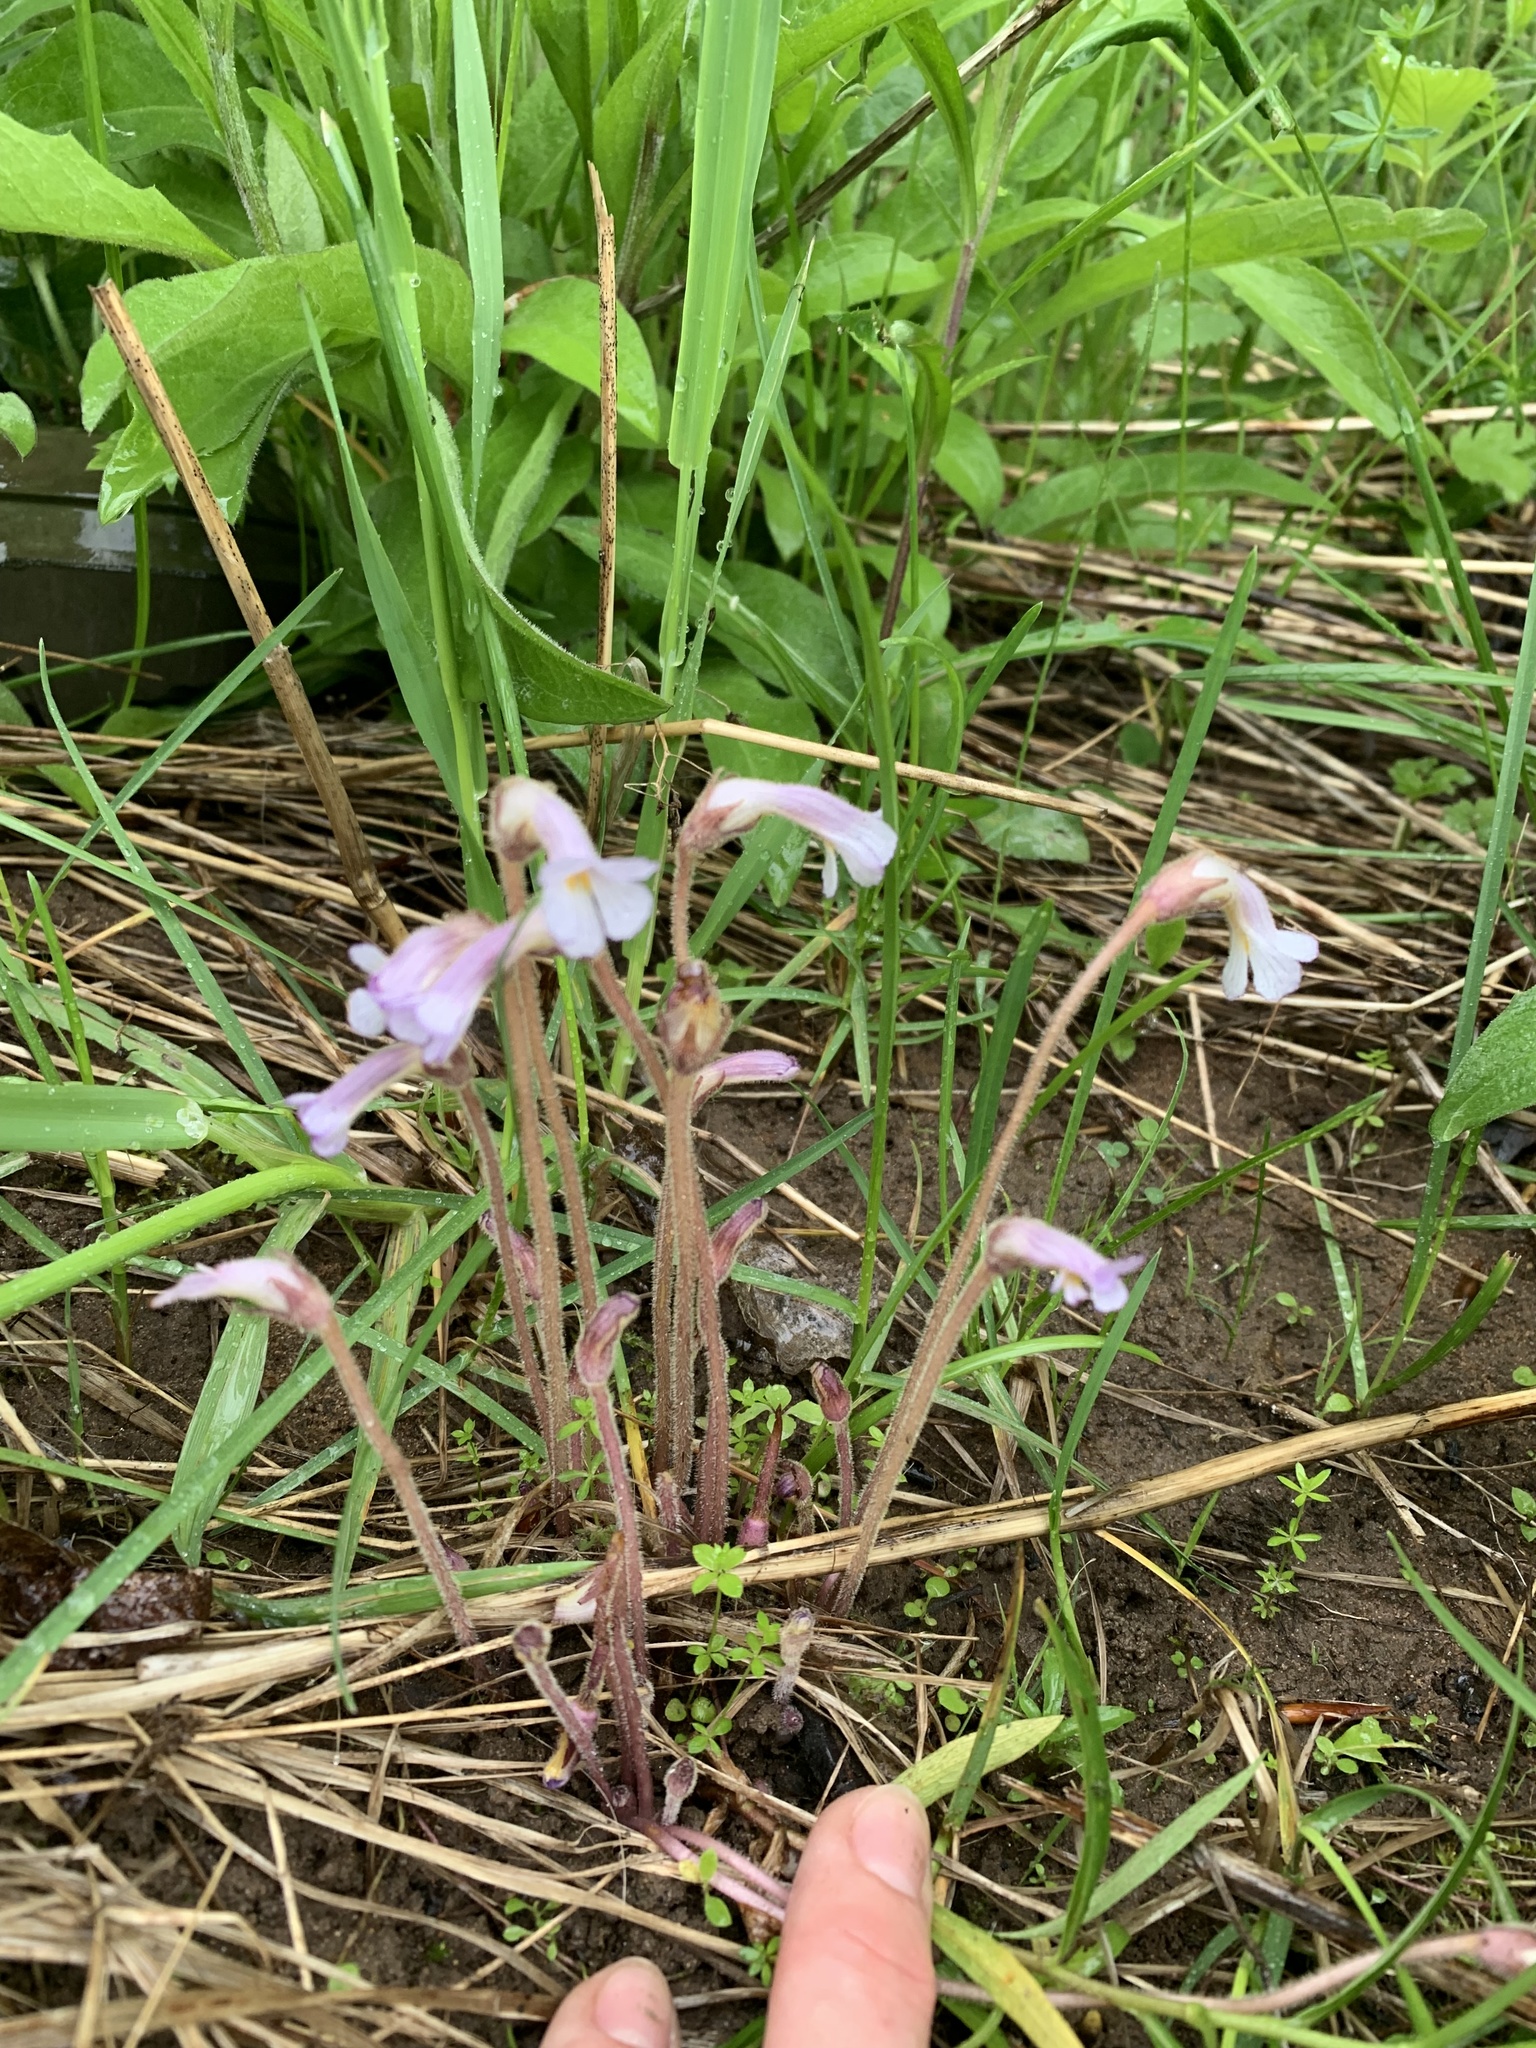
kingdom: Plantae
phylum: Tracheophyta
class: Magnoliopsida
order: Lamiales
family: Orobanchaceae
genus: Aphyllon
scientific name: Aphyllon uniflorum
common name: One-flowered broomrape
